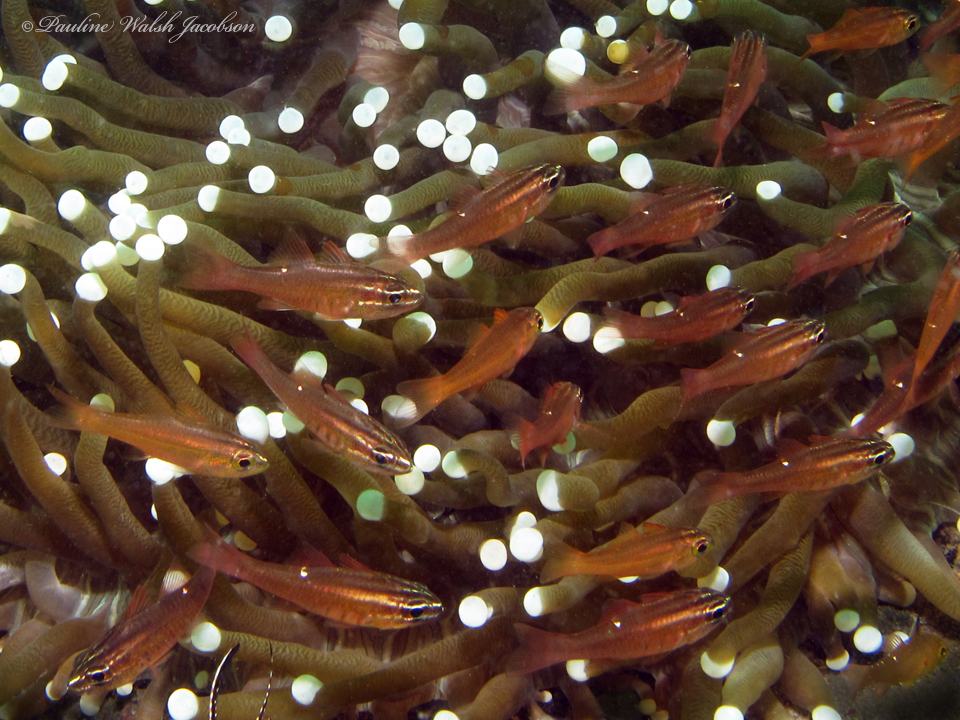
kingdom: Animalia
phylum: Chordata
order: Perciformes
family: Apogonidae
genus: Ostorhinchus
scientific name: Ostorhinchus moluccensis
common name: Moluccan cardinalfish
